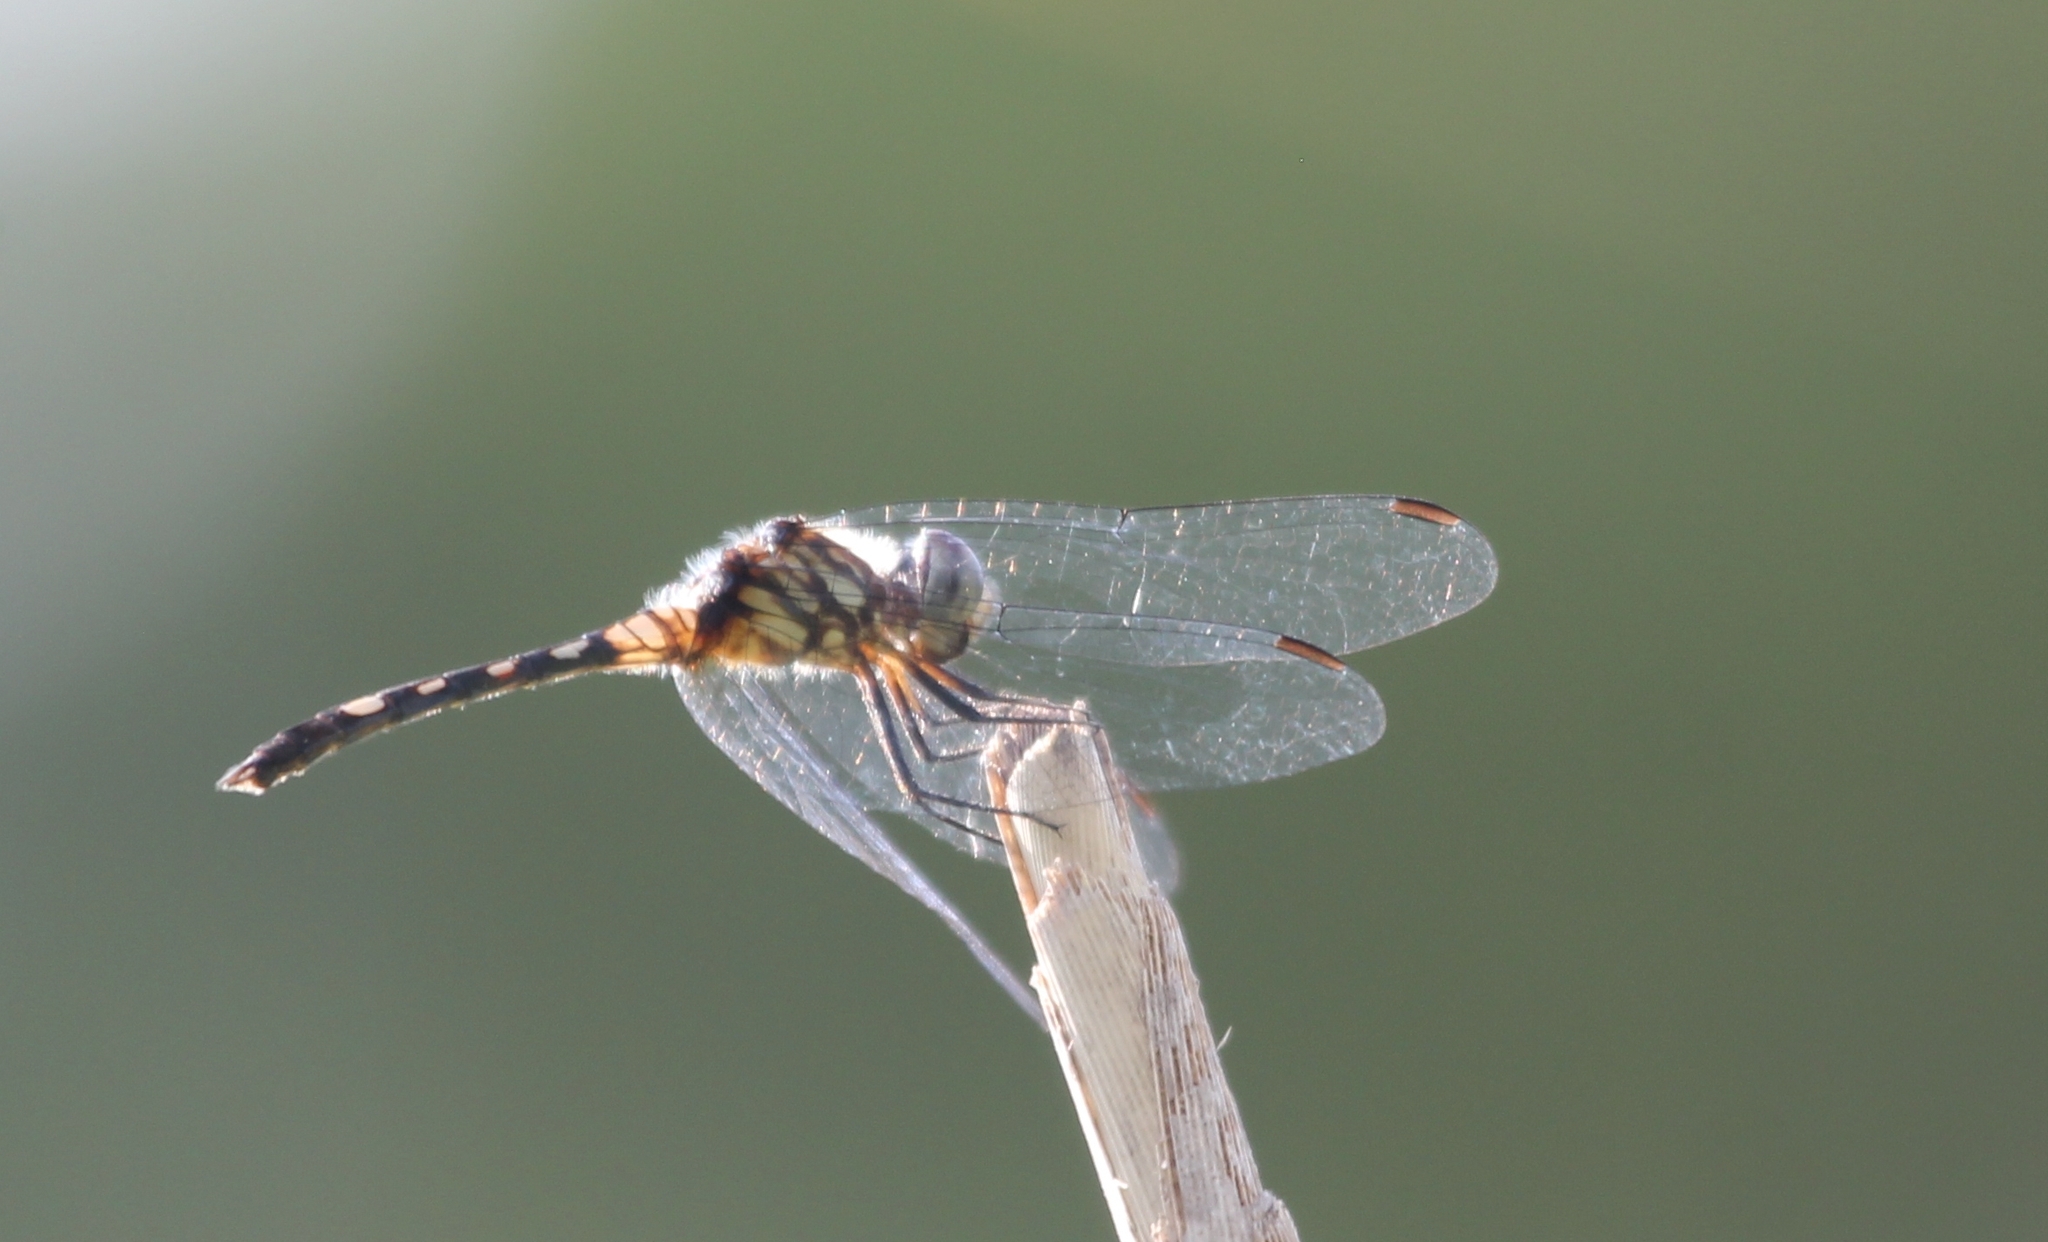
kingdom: Animalia
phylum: Arthropoda
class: Insecta
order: Odonata
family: Libellulidae
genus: Micrathyria
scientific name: Micrathyria hagenii
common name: Thornbush dasher
